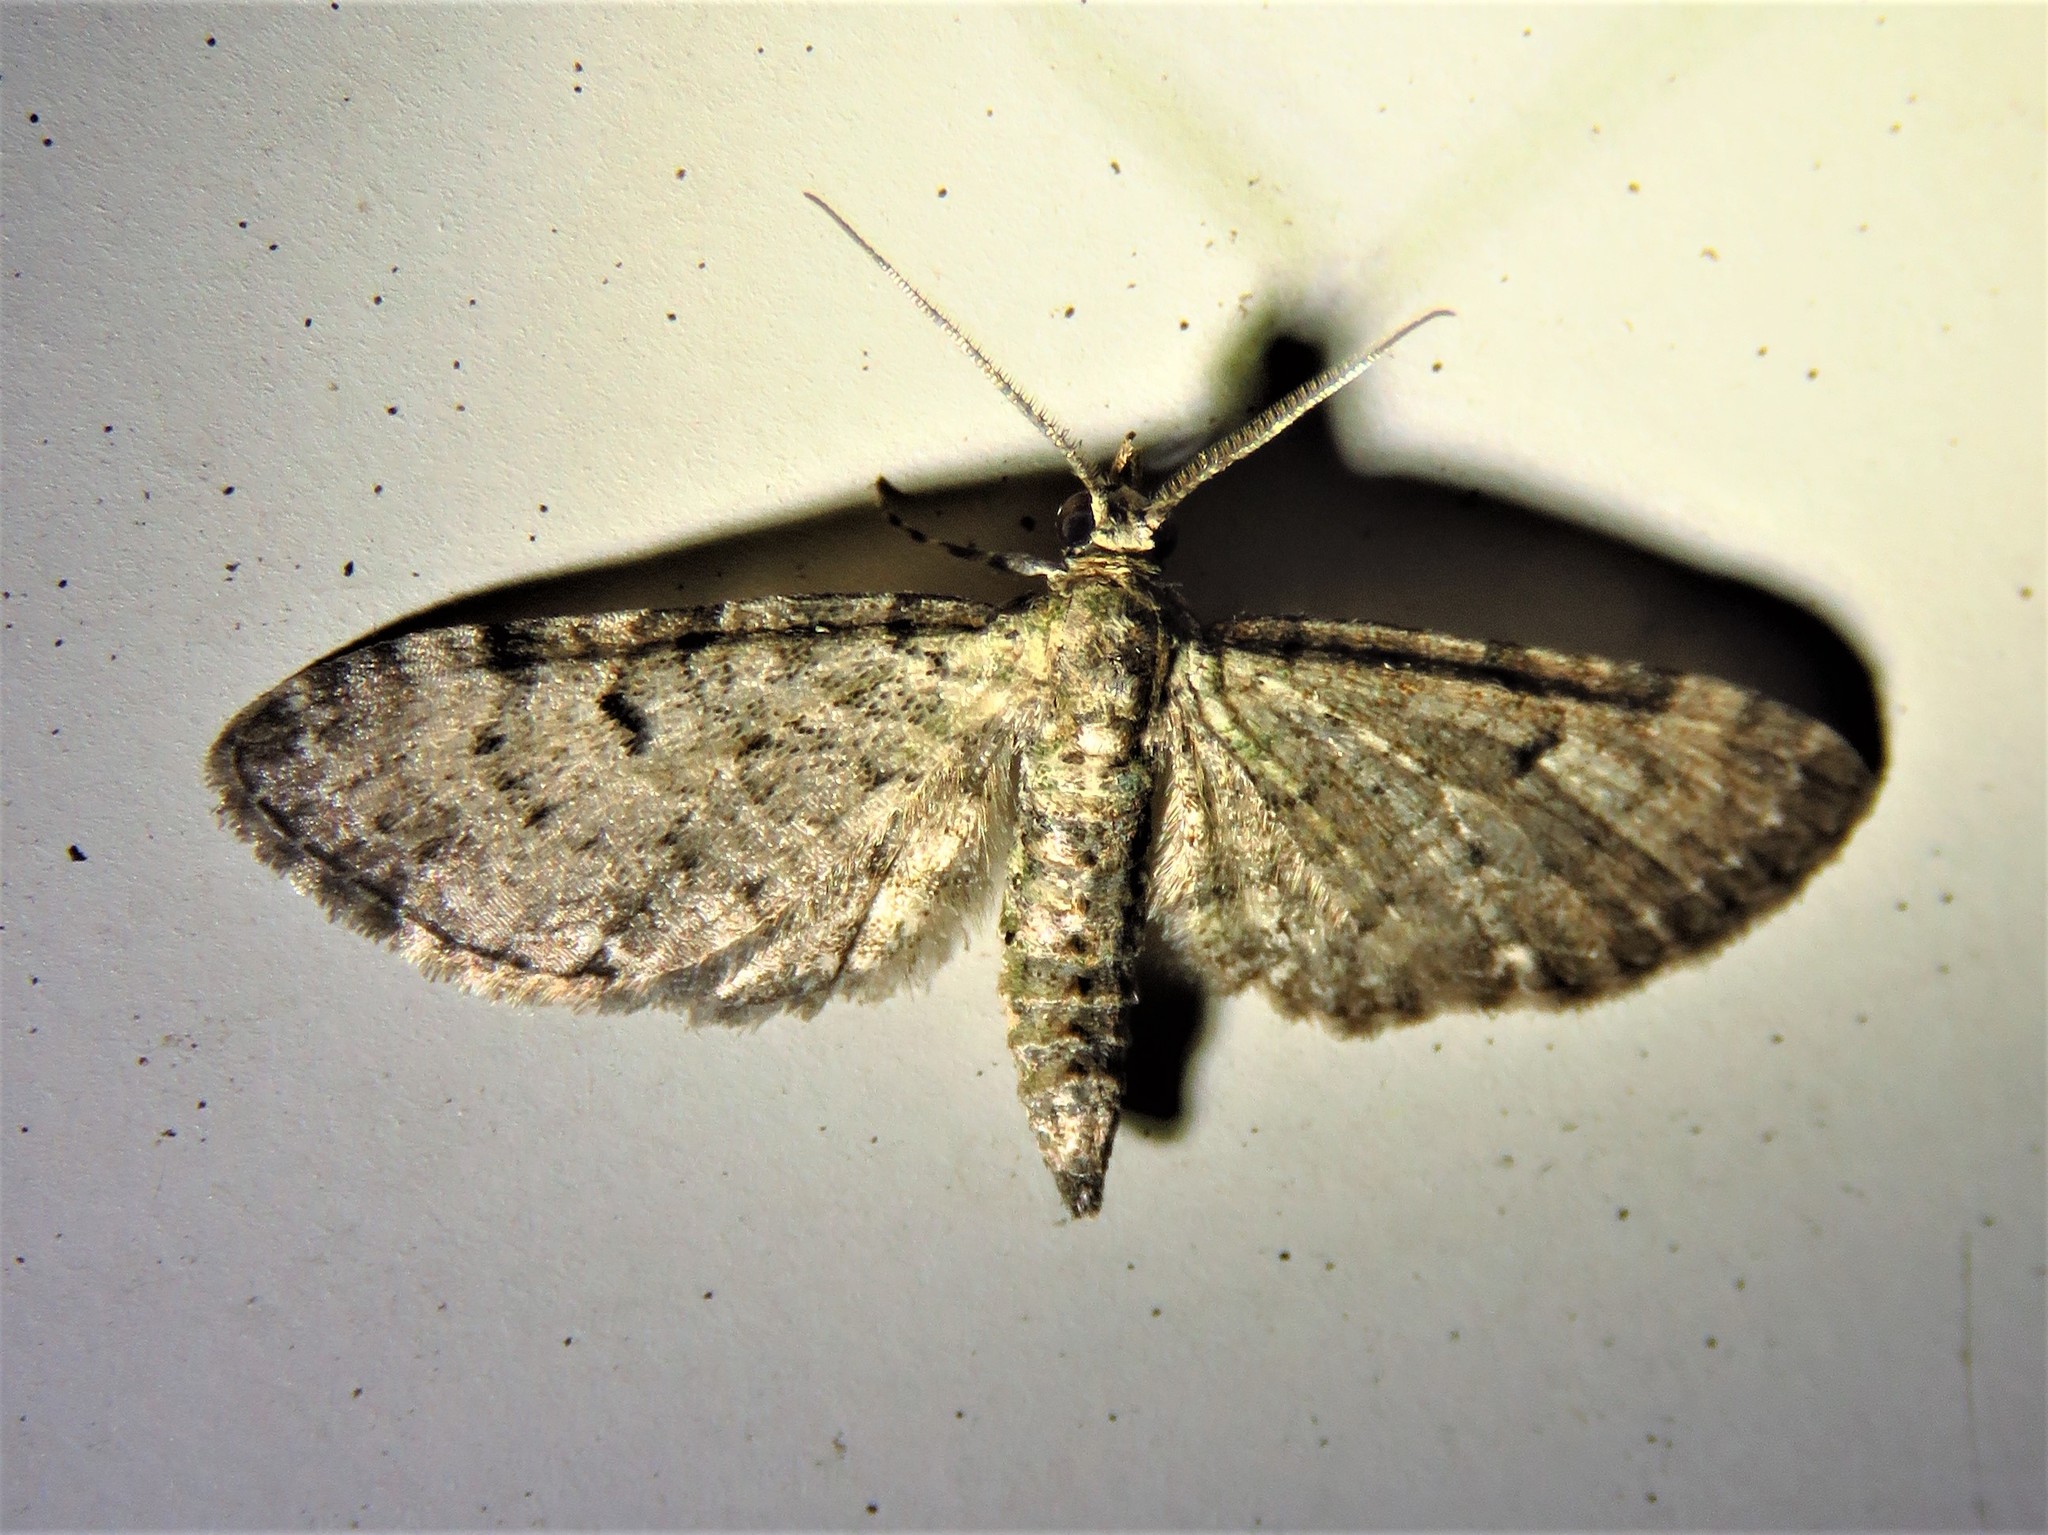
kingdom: Animalia
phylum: Arthropoda
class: Insecta
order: Lepidoptera
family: Geometridae
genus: Eupithecia
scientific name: Eupithecia miserulata
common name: Common eupithecia
